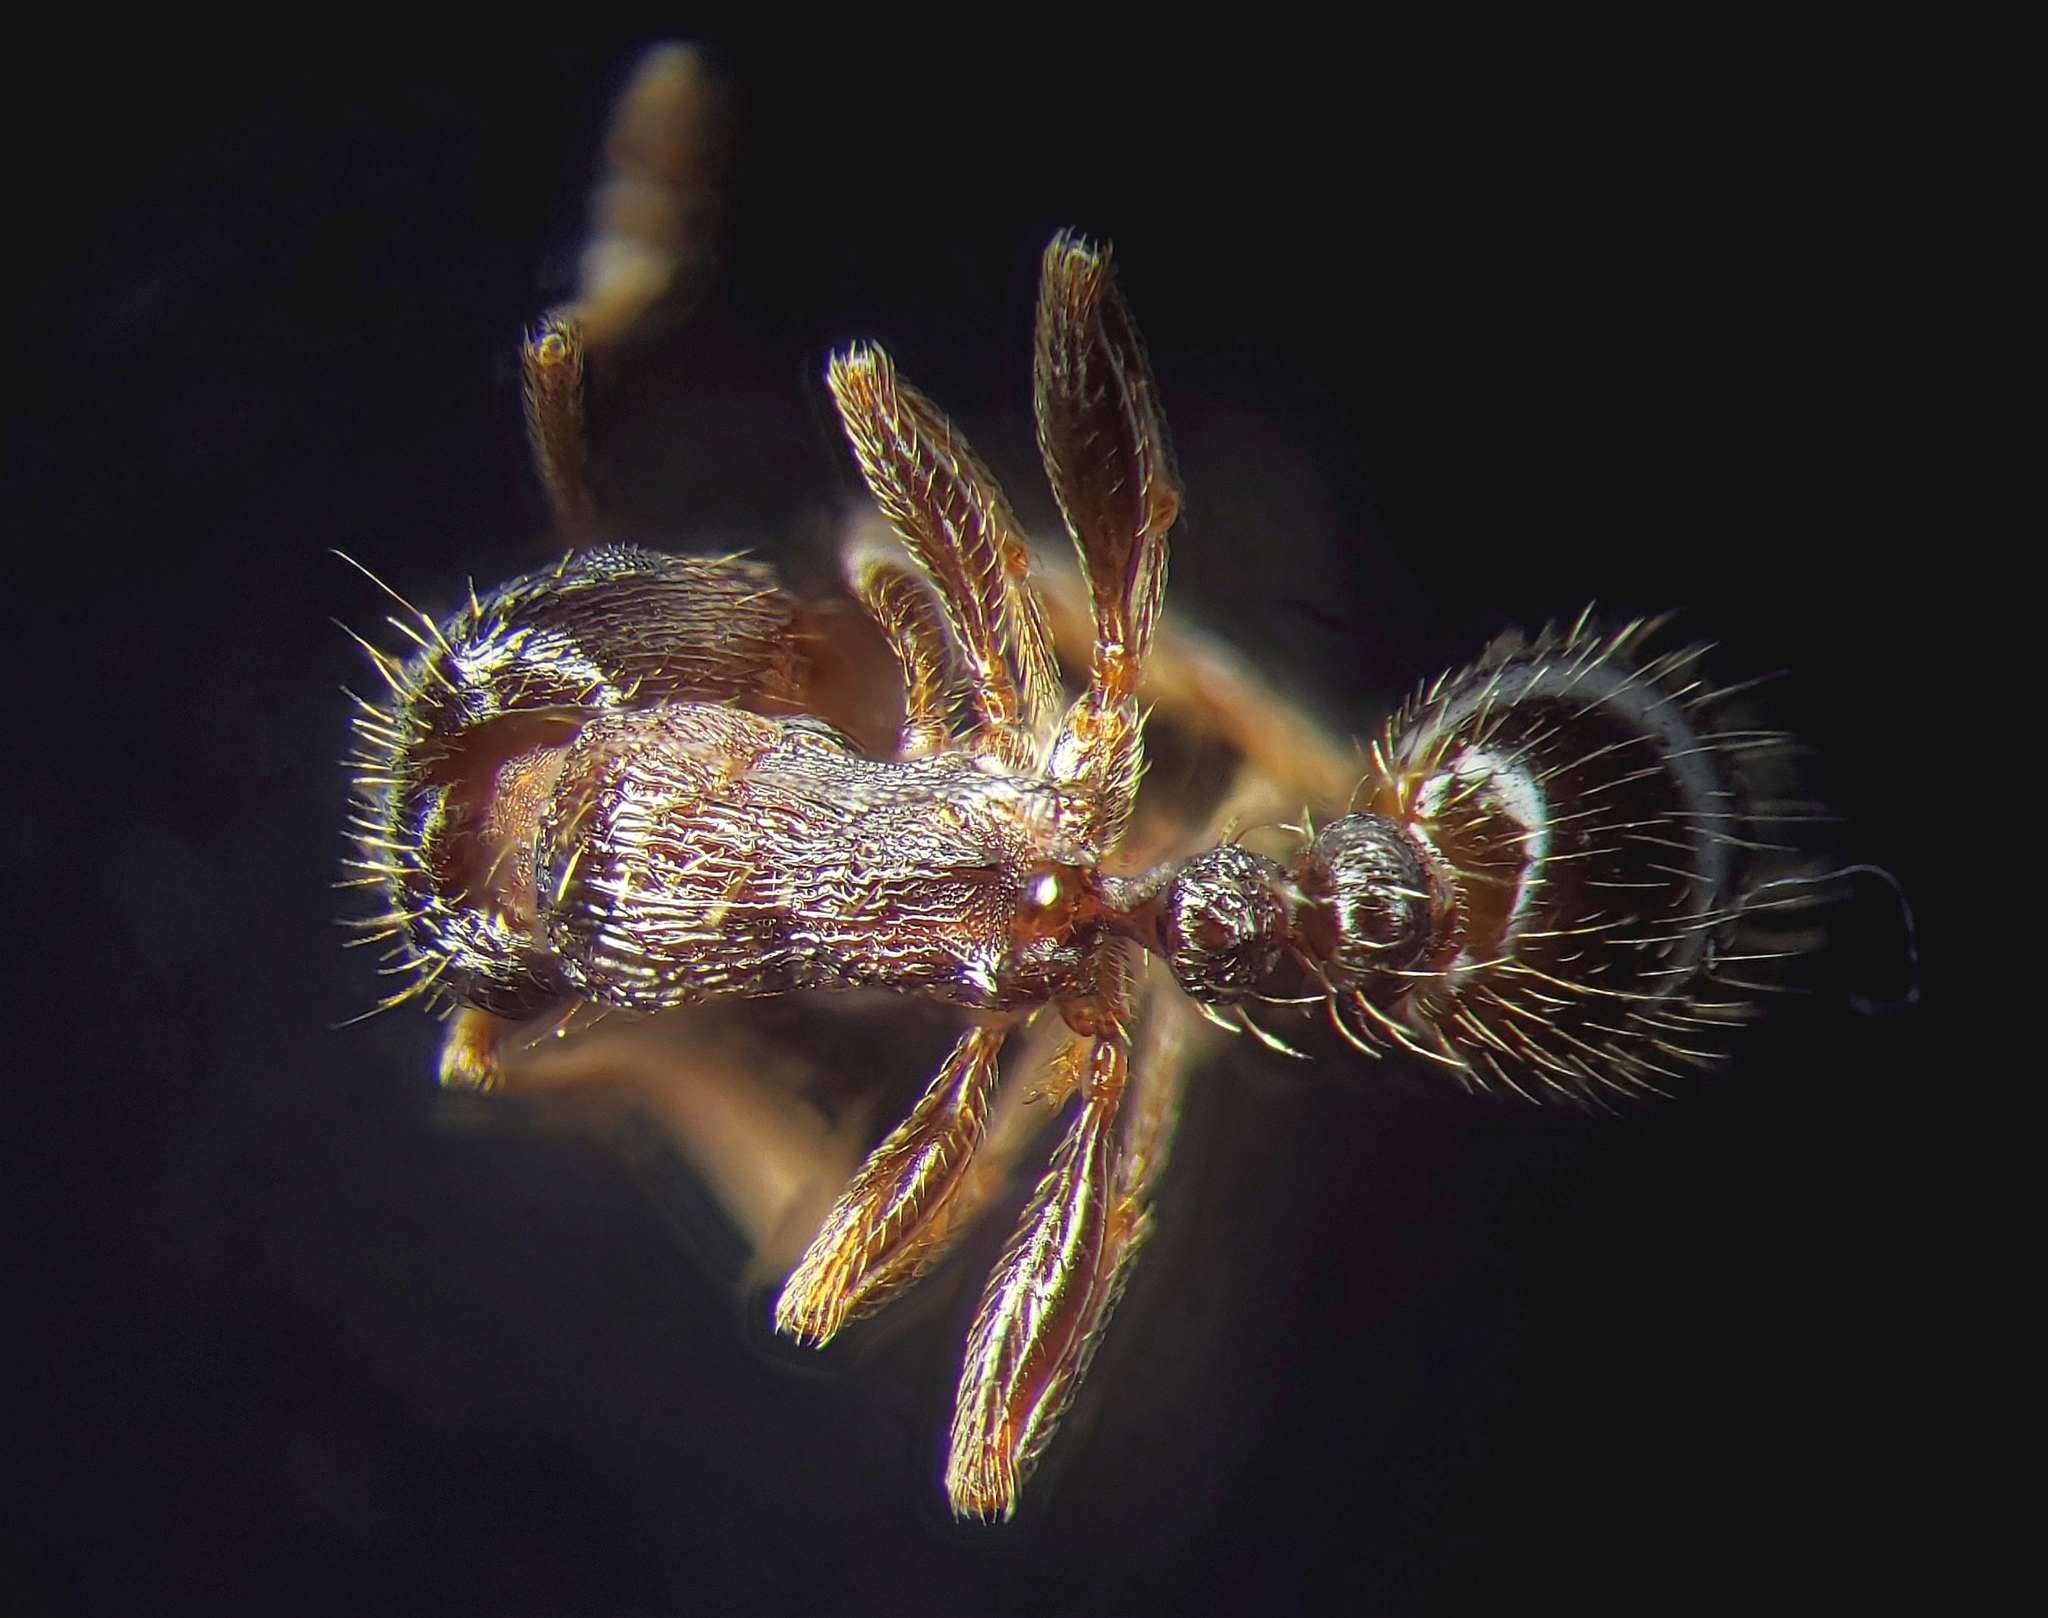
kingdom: Animalia
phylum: Arthropoda
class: Insecta
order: Hymenoptera
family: Formicidae
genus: Tetramorium
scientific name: Tetramorium immigrans
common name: Pavement ant
